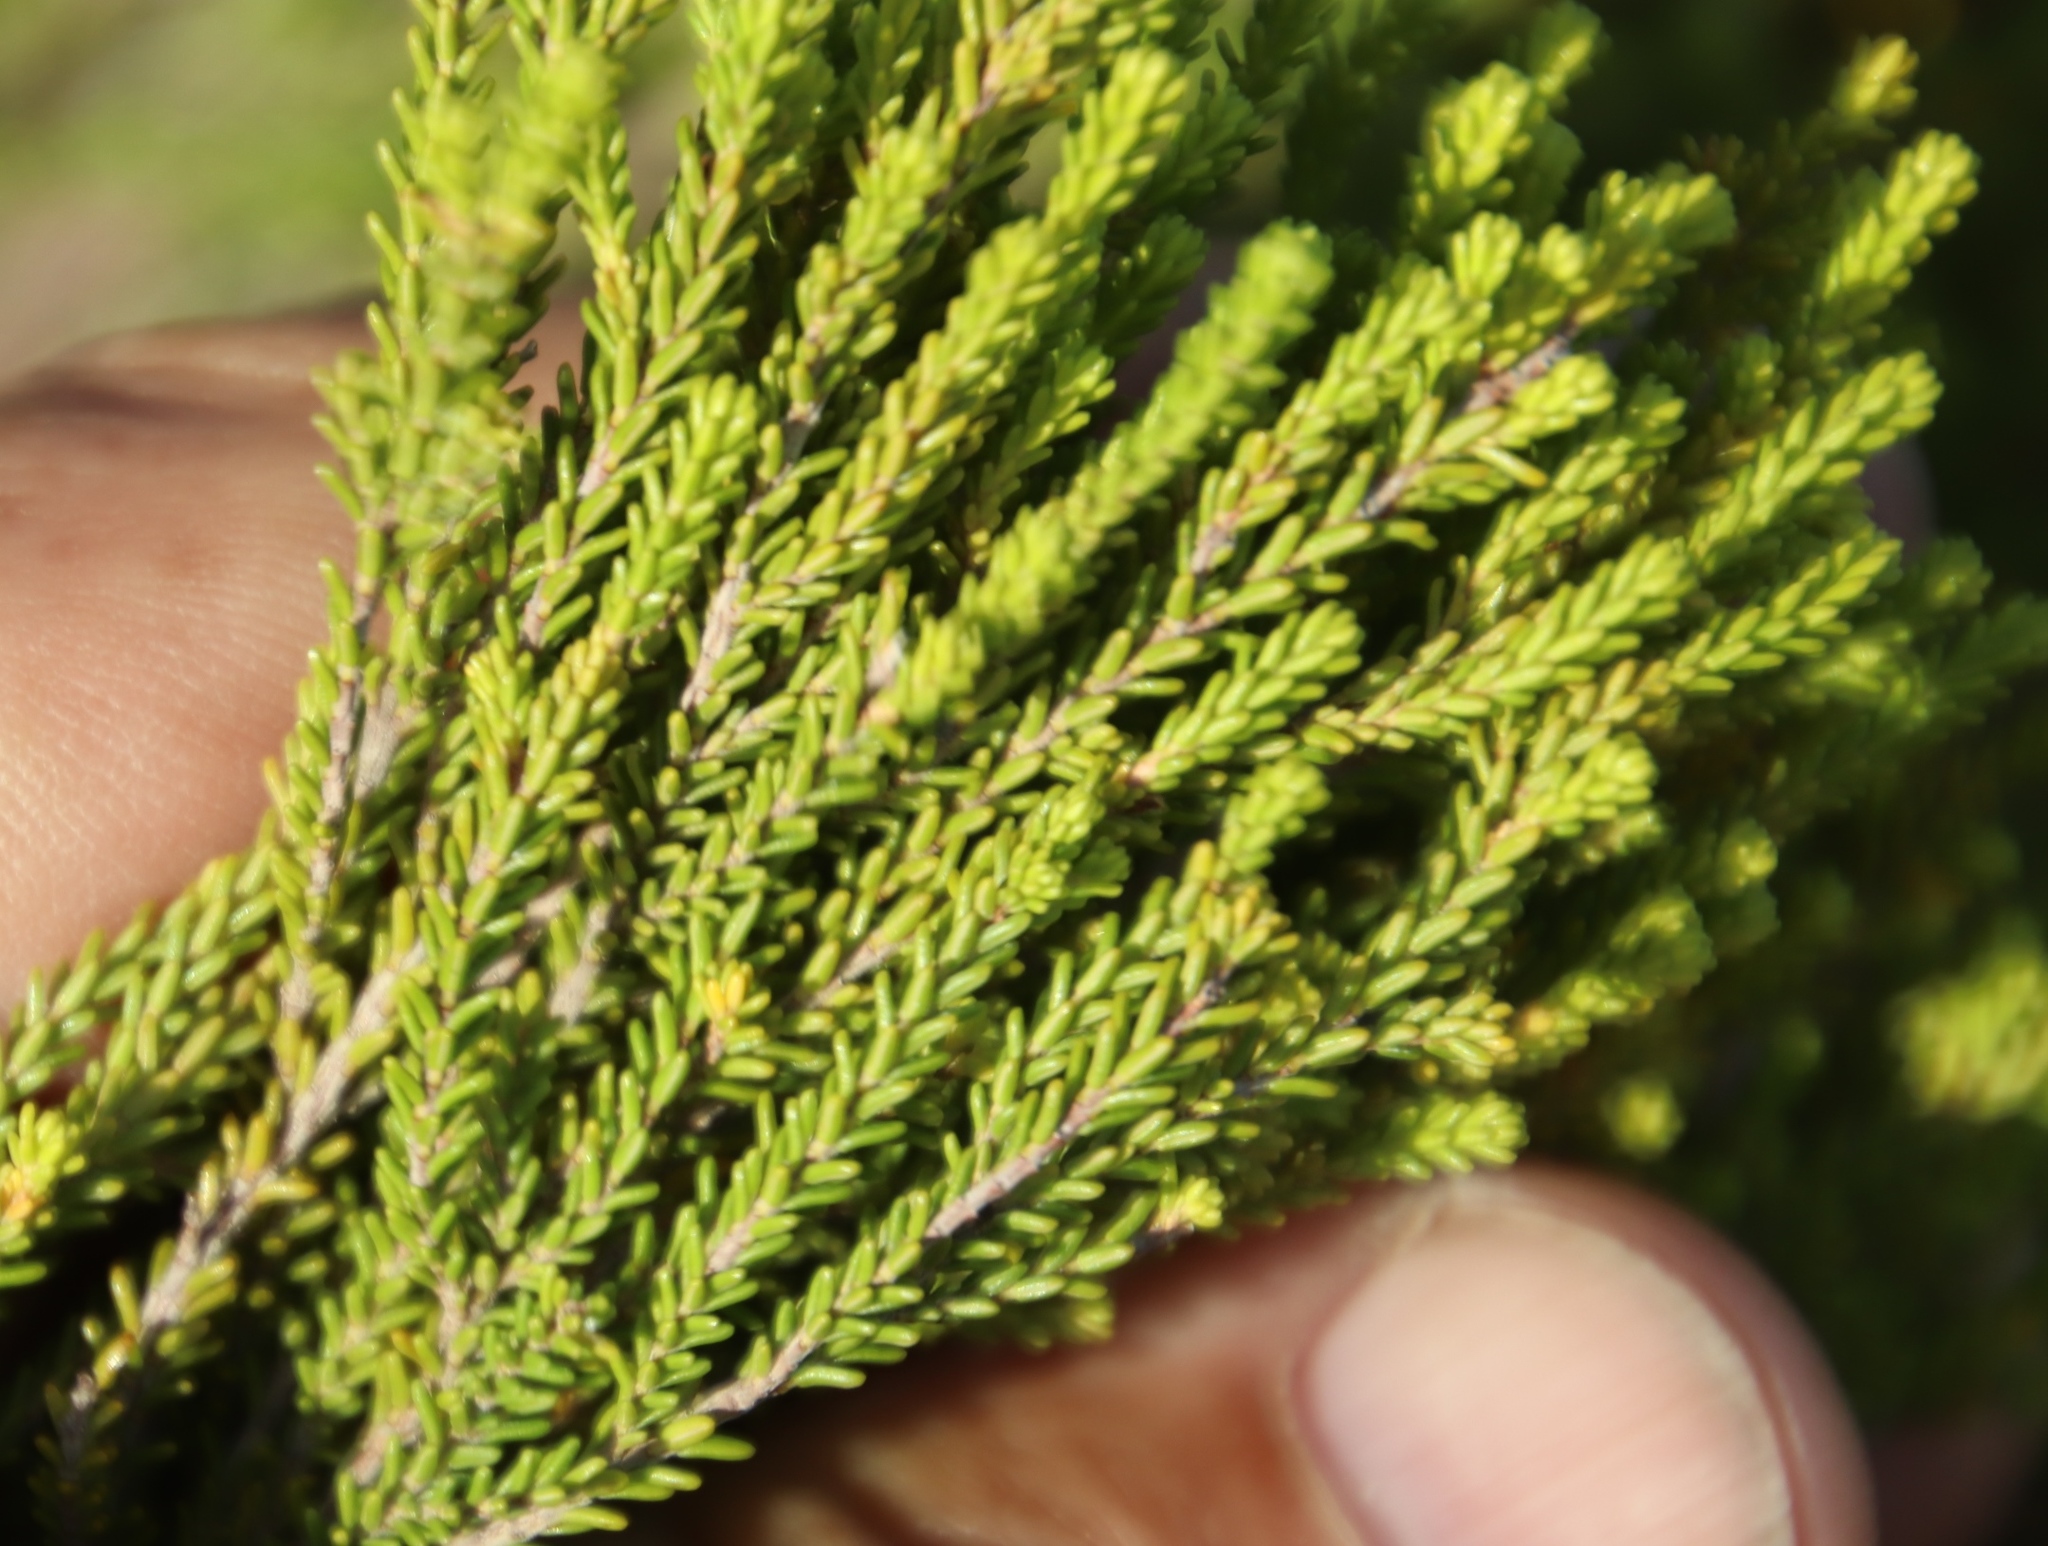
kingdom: Plantae
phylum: Tracheophyta
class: Magnoliopsida
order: Ericales
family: Ericaceae
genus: Erica
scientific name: Erica tristis
